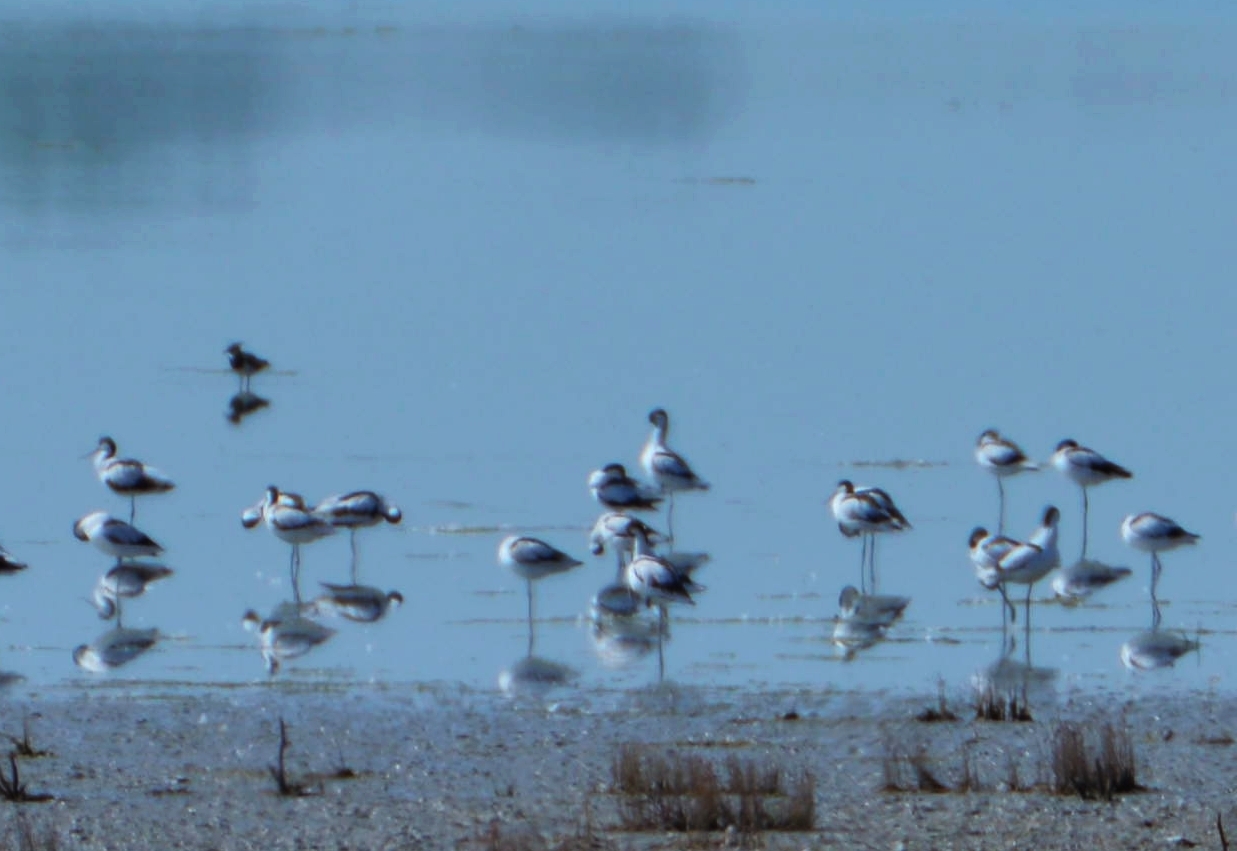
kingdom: Animalia
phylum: Chordata
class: Aves
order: Charadriiformes
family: Recurvirostridae
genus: Recurvirostra
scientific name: Recurvirostra avosetta
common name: Pied avocet
